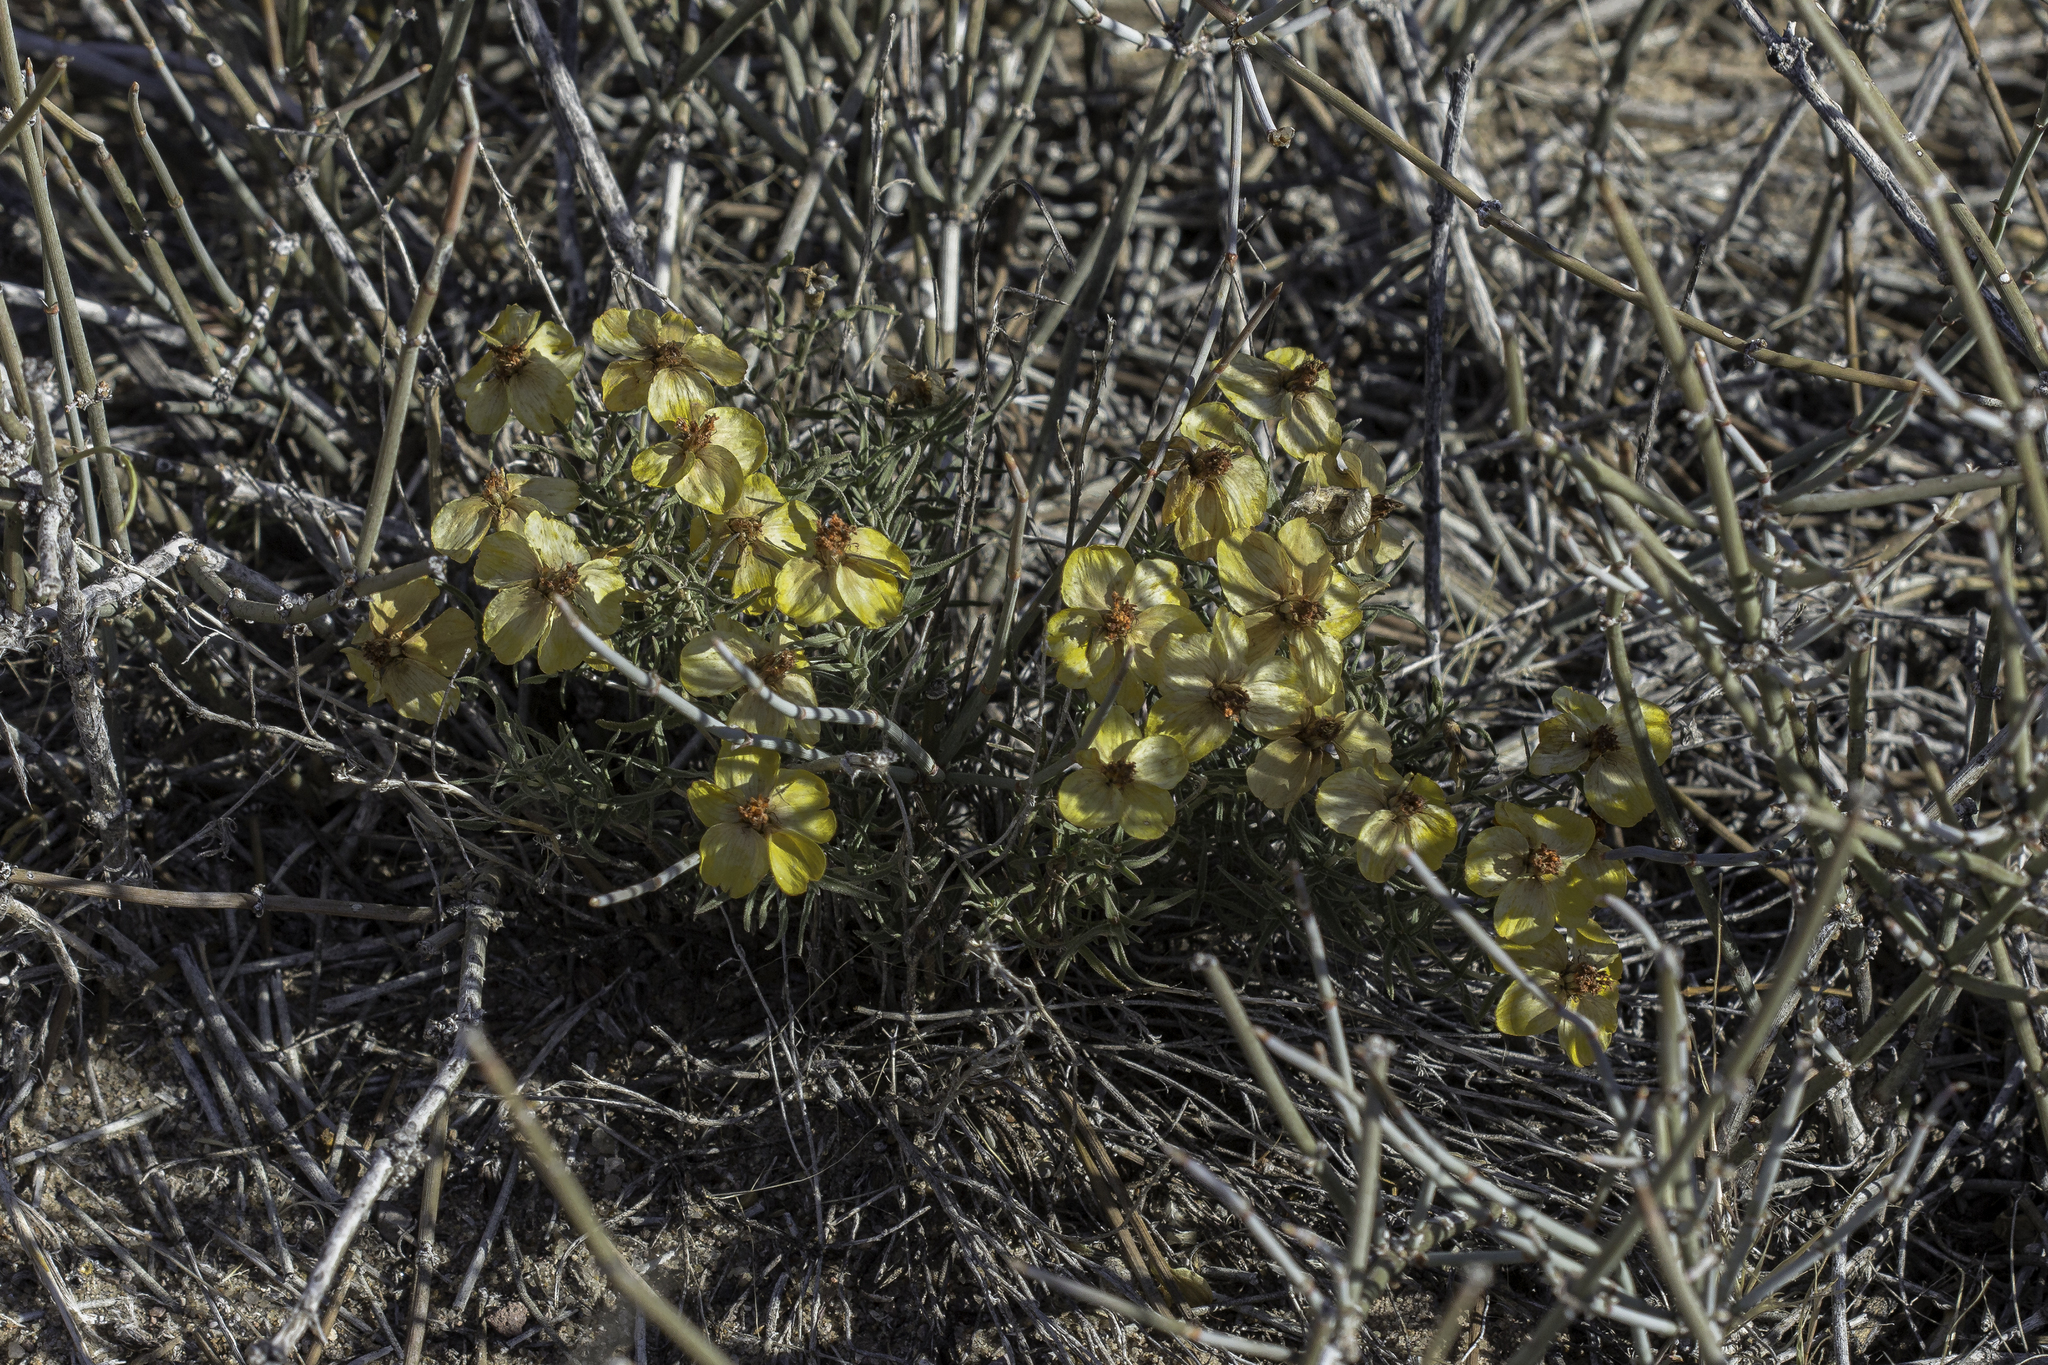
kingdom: Plantae
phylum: Tracheophyta
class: Magnoliopsida
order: Asterales
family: Asteraceae
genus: Zinnia
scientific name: Zinnia grandiflora
